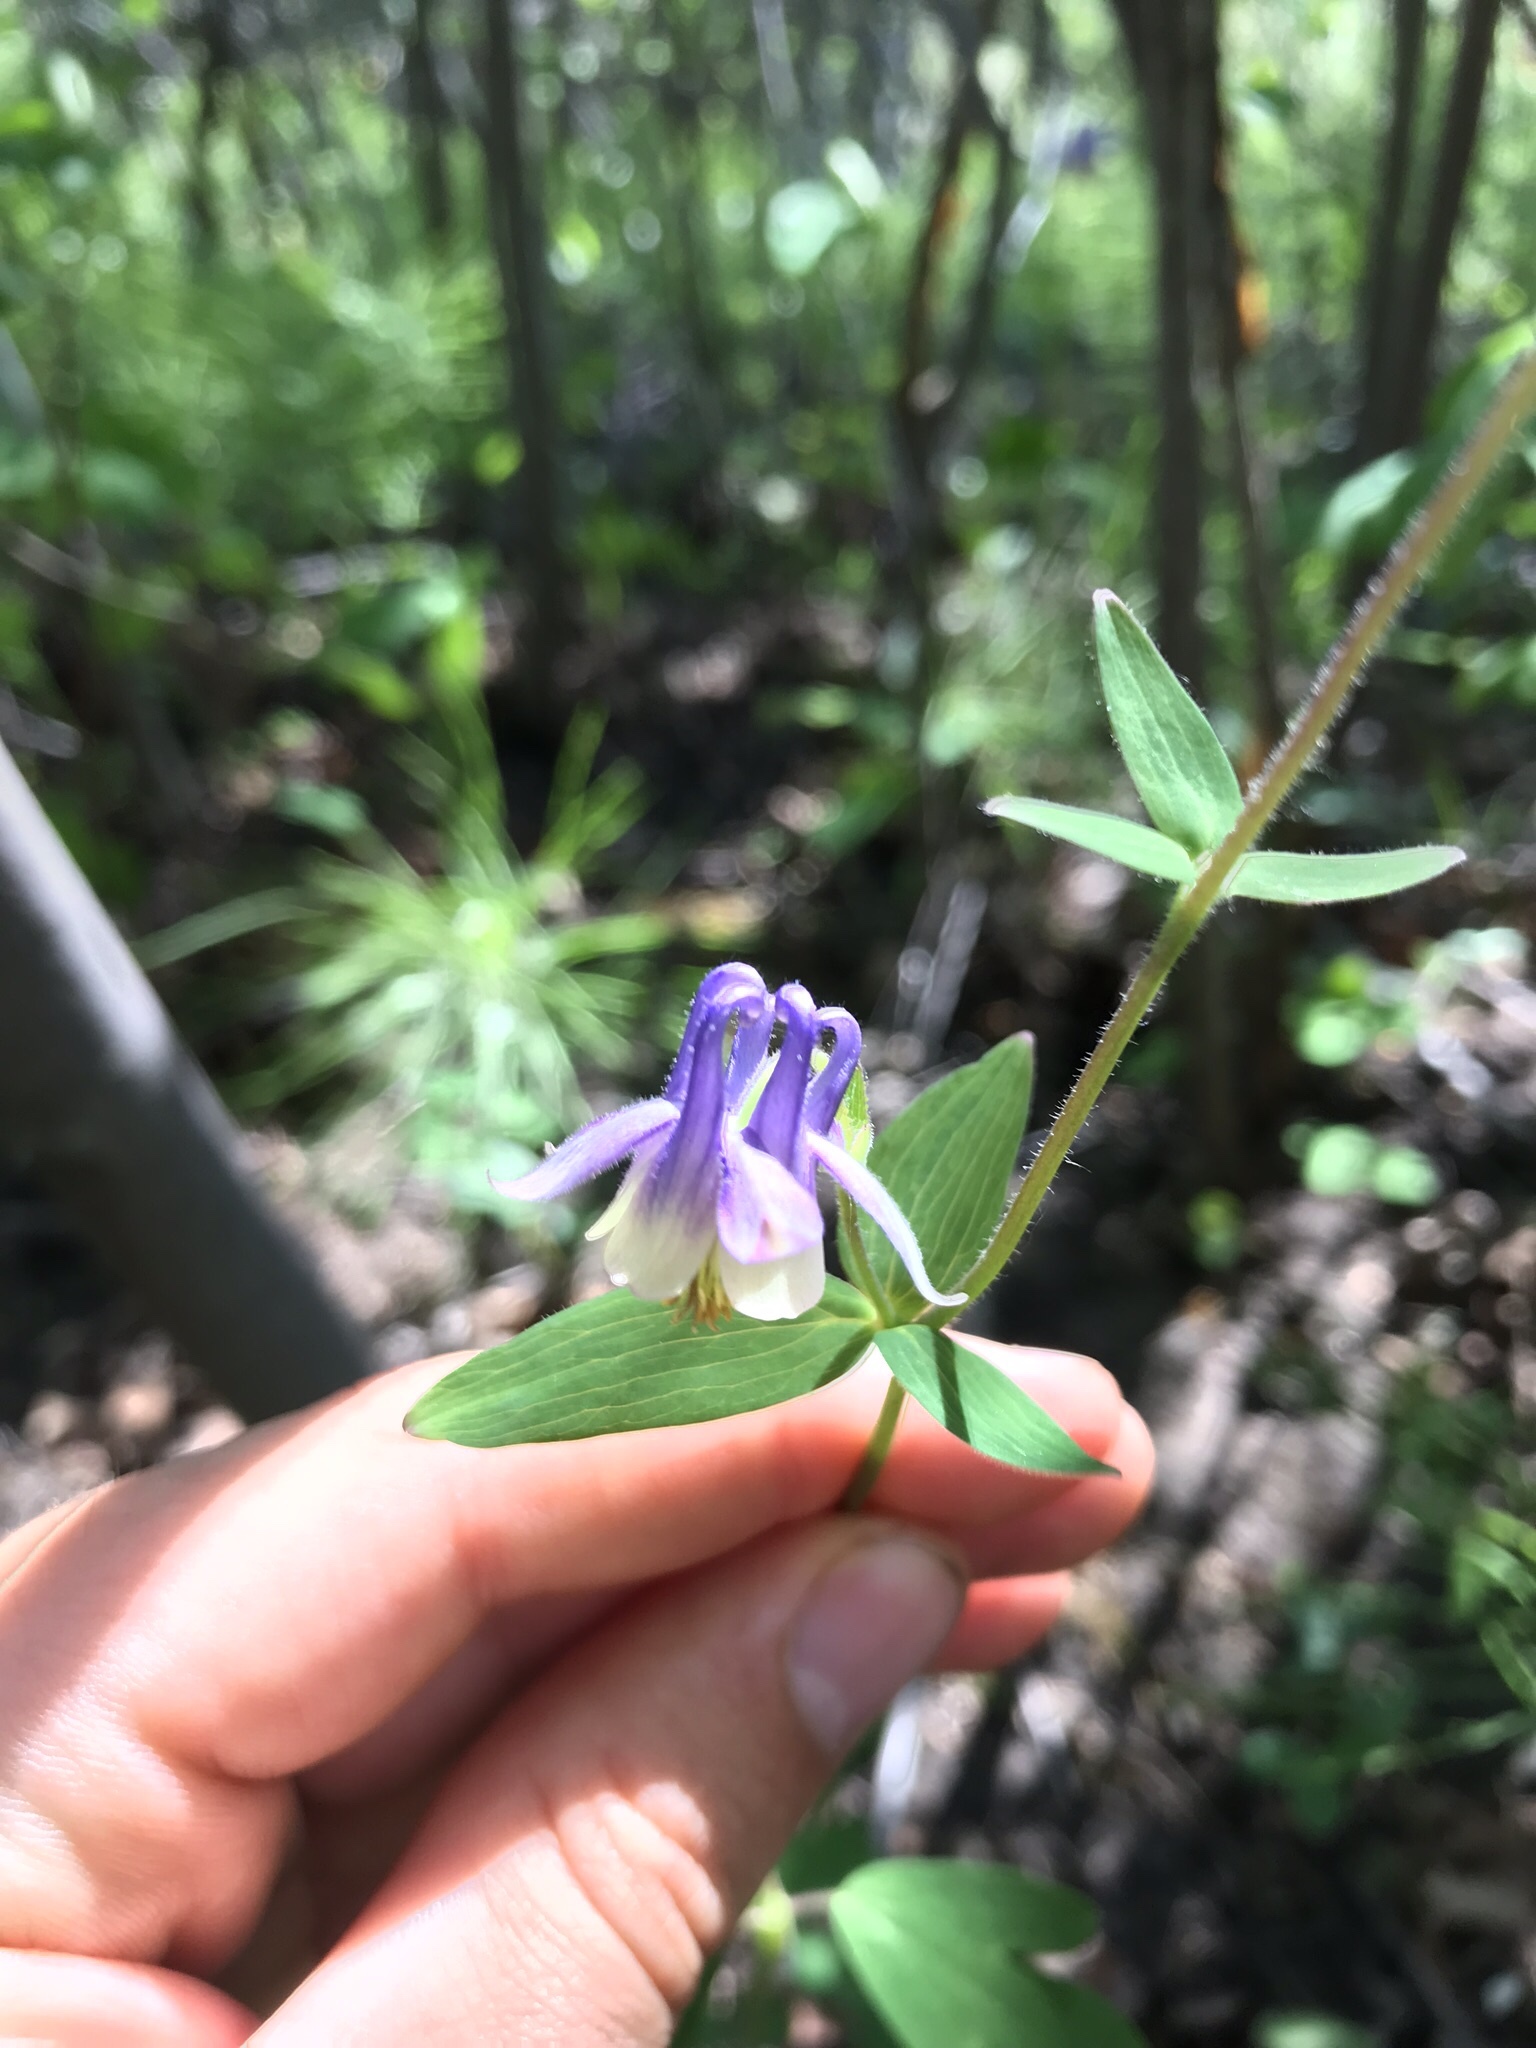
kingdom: Plantae
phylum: Tracheophyta
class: Magnoliopsida
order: Ranunculales
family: Ranunculaceae
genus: Aquilegia
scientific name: Aquilegia brevistyla
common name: Yukon columbine
